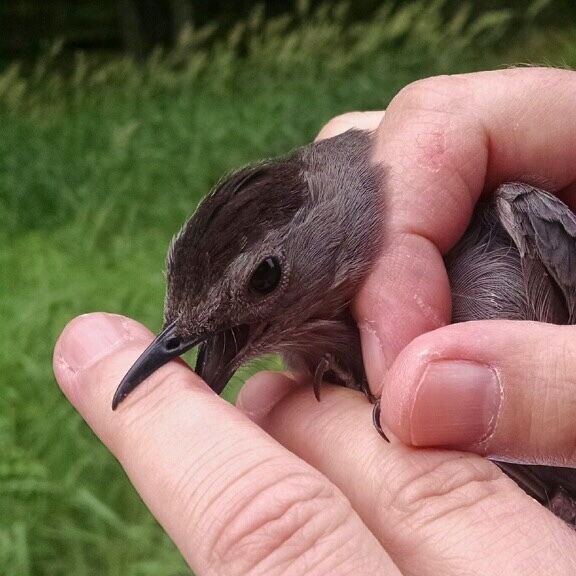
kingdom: Animalia
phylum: Chordata
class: Aves
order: Passeriformes
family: Mimidae
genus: Dumetella
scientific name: Dumetella carolinensis
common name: Gray catbird
